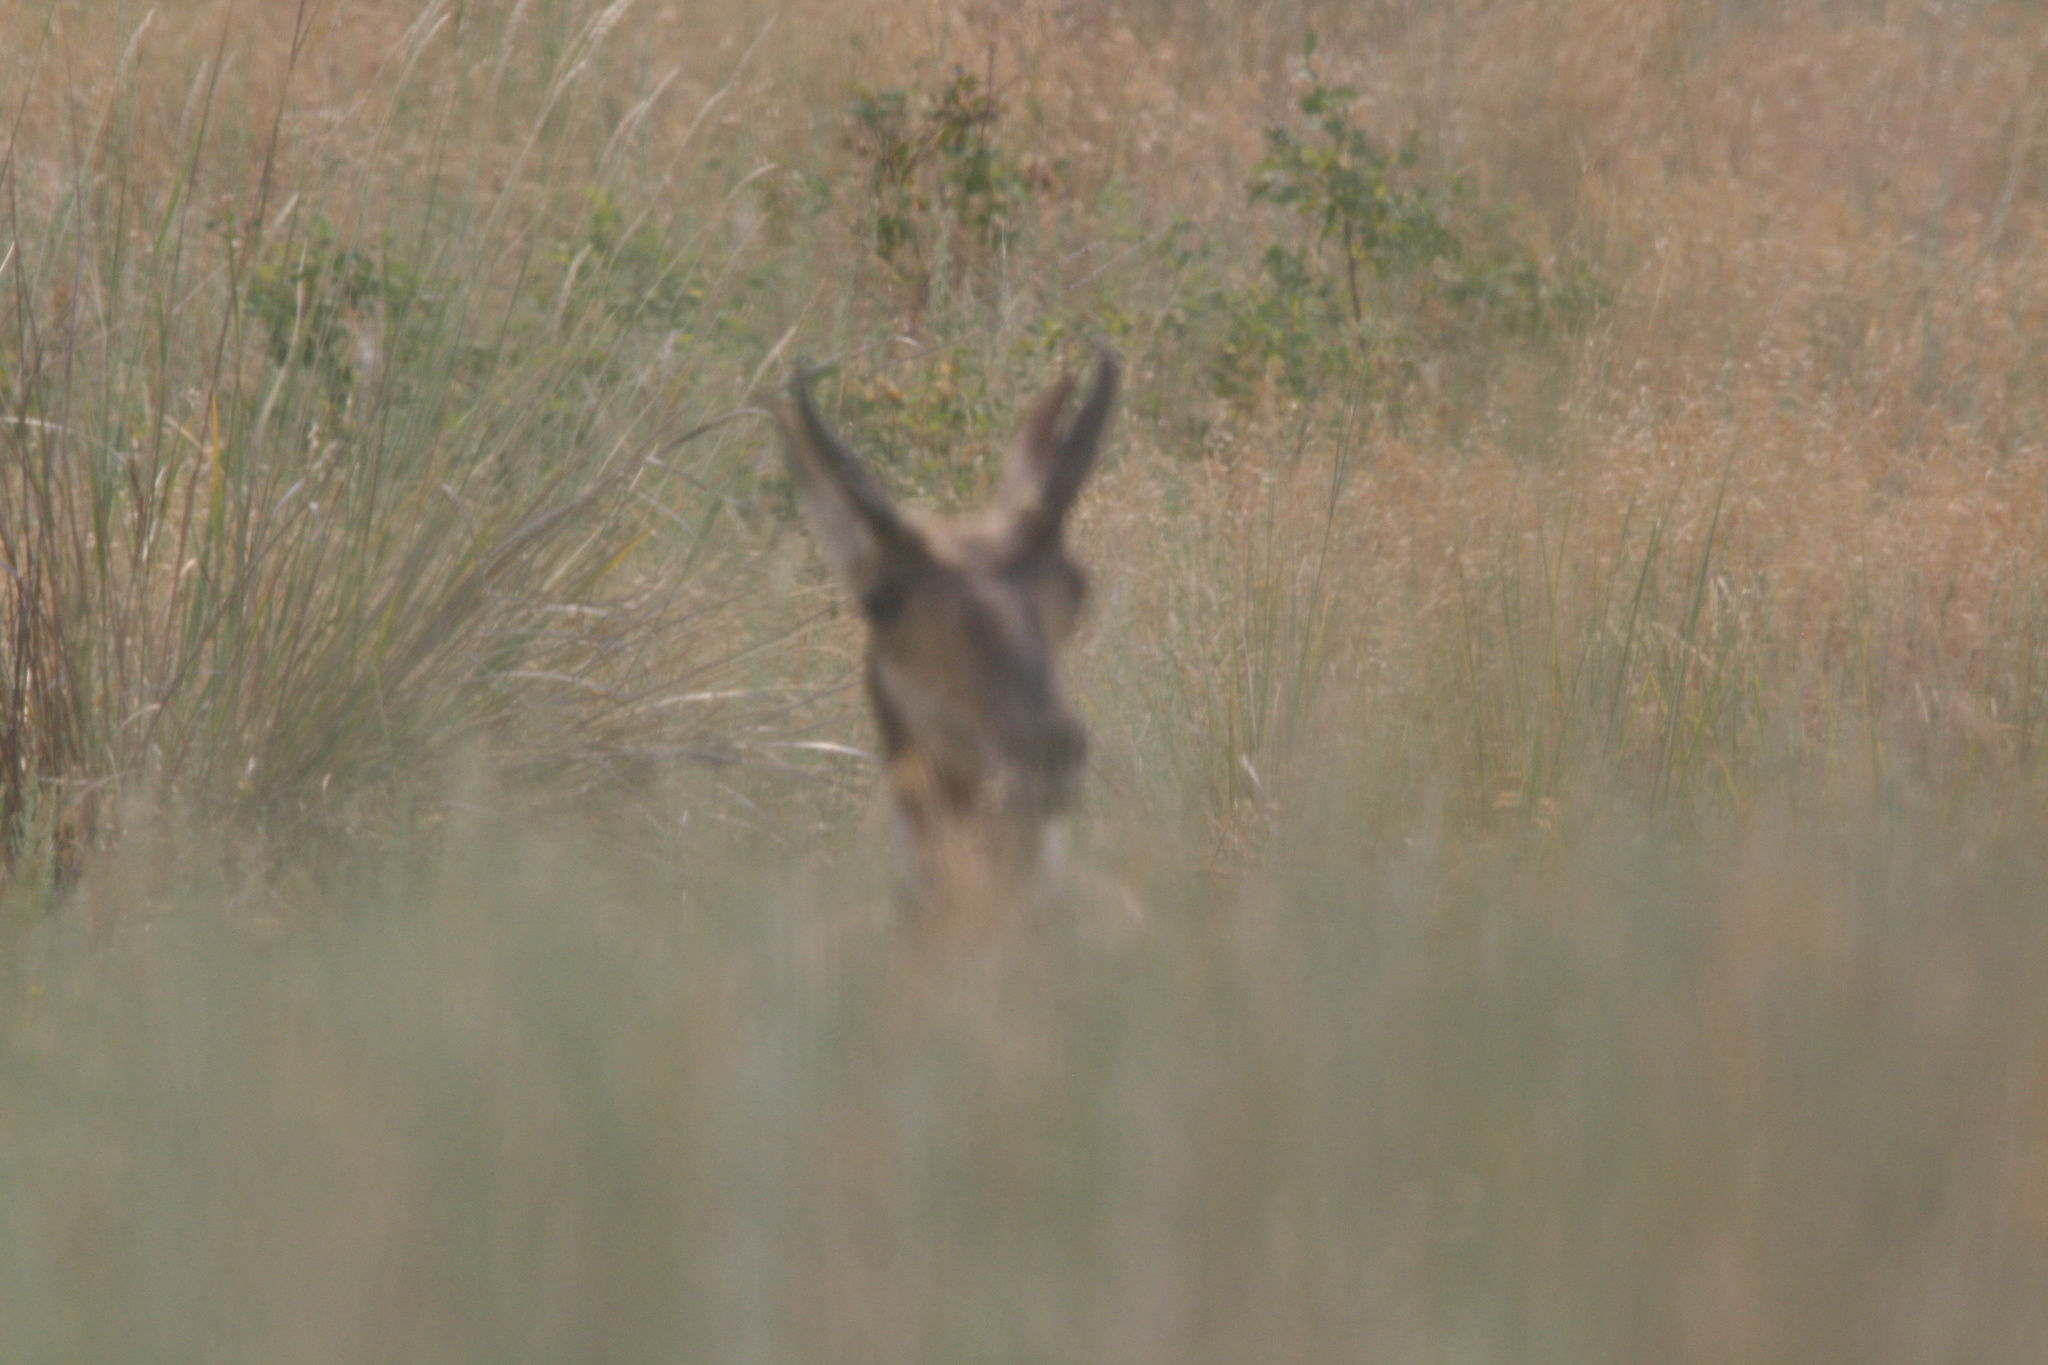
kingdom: Animalia
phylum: Chordata
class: Mammalia
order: Artiodactyla
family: Antilocapridae
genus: Antilocapra
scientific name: Antilocapra americana
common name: Pronghorn
